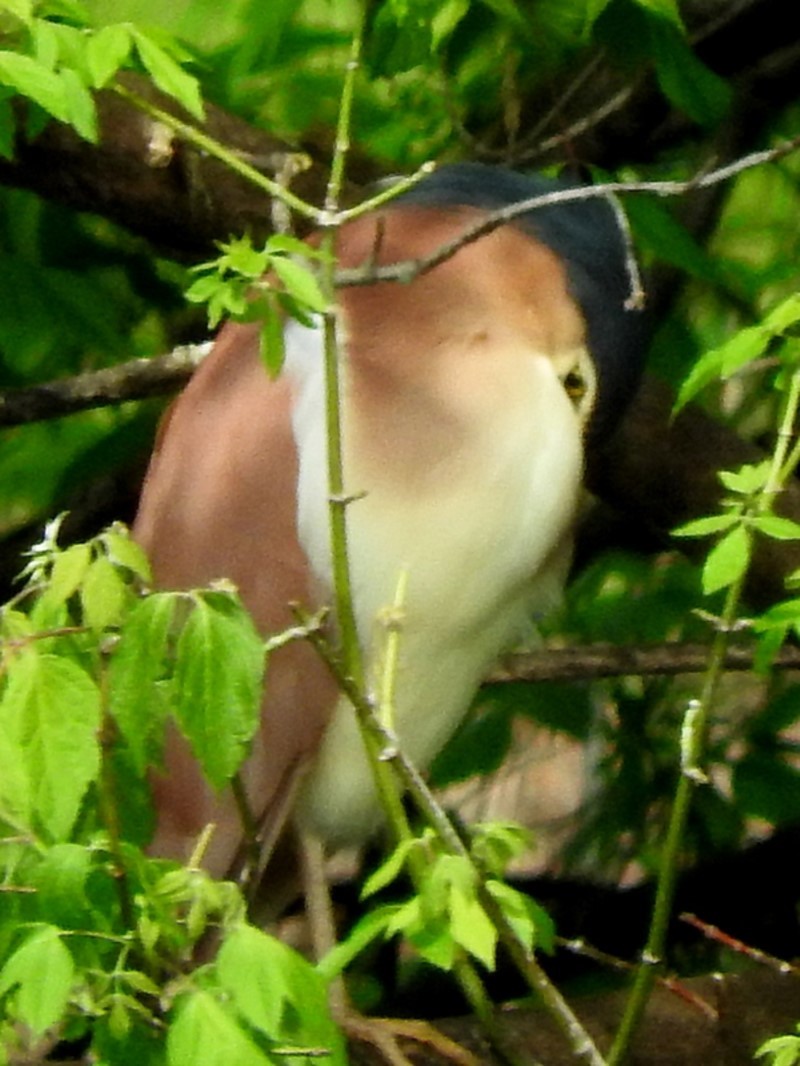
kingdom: Animalia
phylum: Chordata
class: Aves
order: Pelecaniformes
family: Ardeidae
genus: Nycticorax
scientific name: Nycticorax caledonicus
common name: Rufous night-heron
